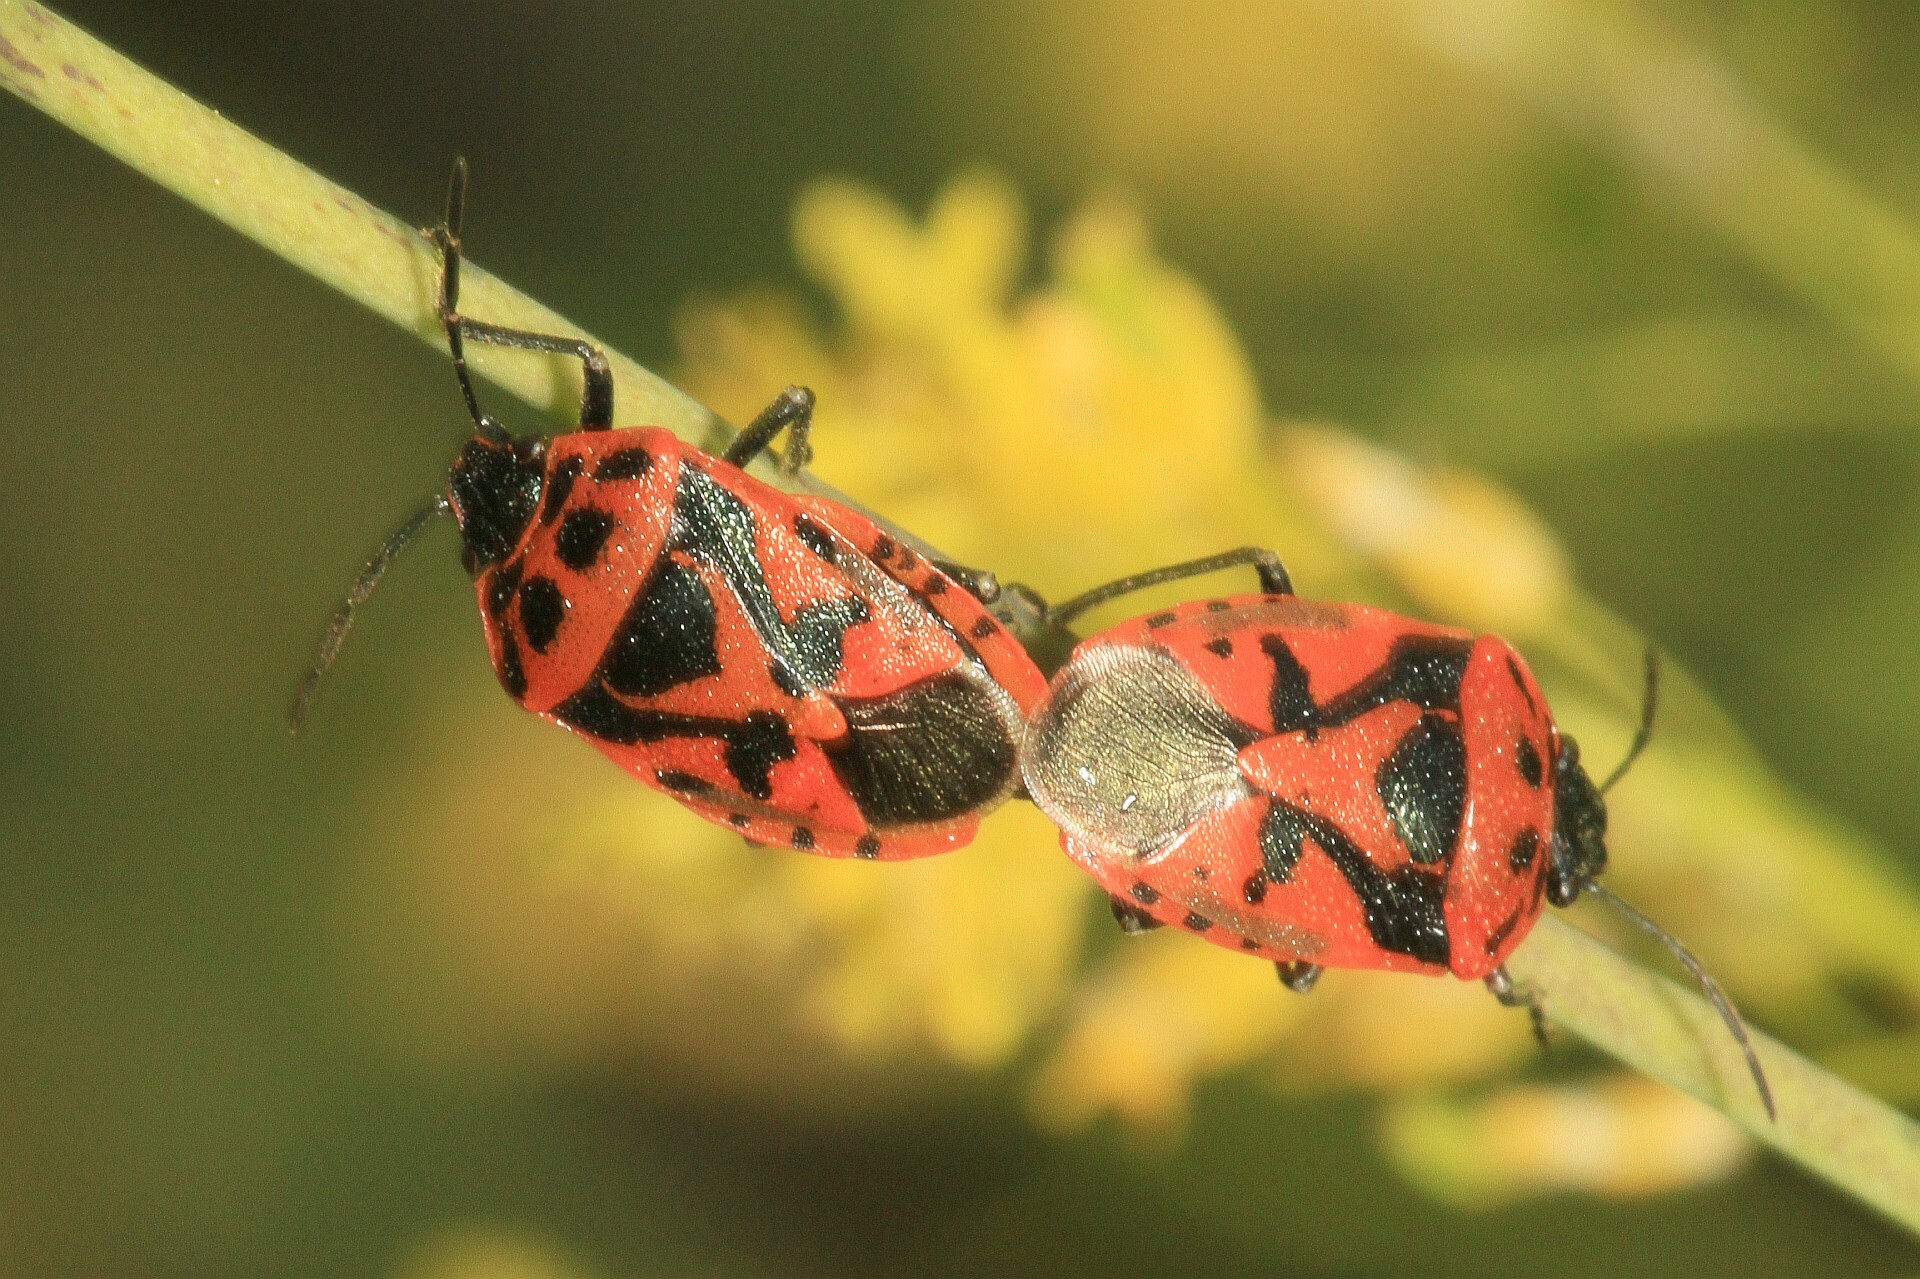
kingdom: Animalia
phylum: Arthropoda
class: Insecta
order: Hemiptera
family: Pentatomidae
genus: Eurydema
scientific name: Eurydema ornata
